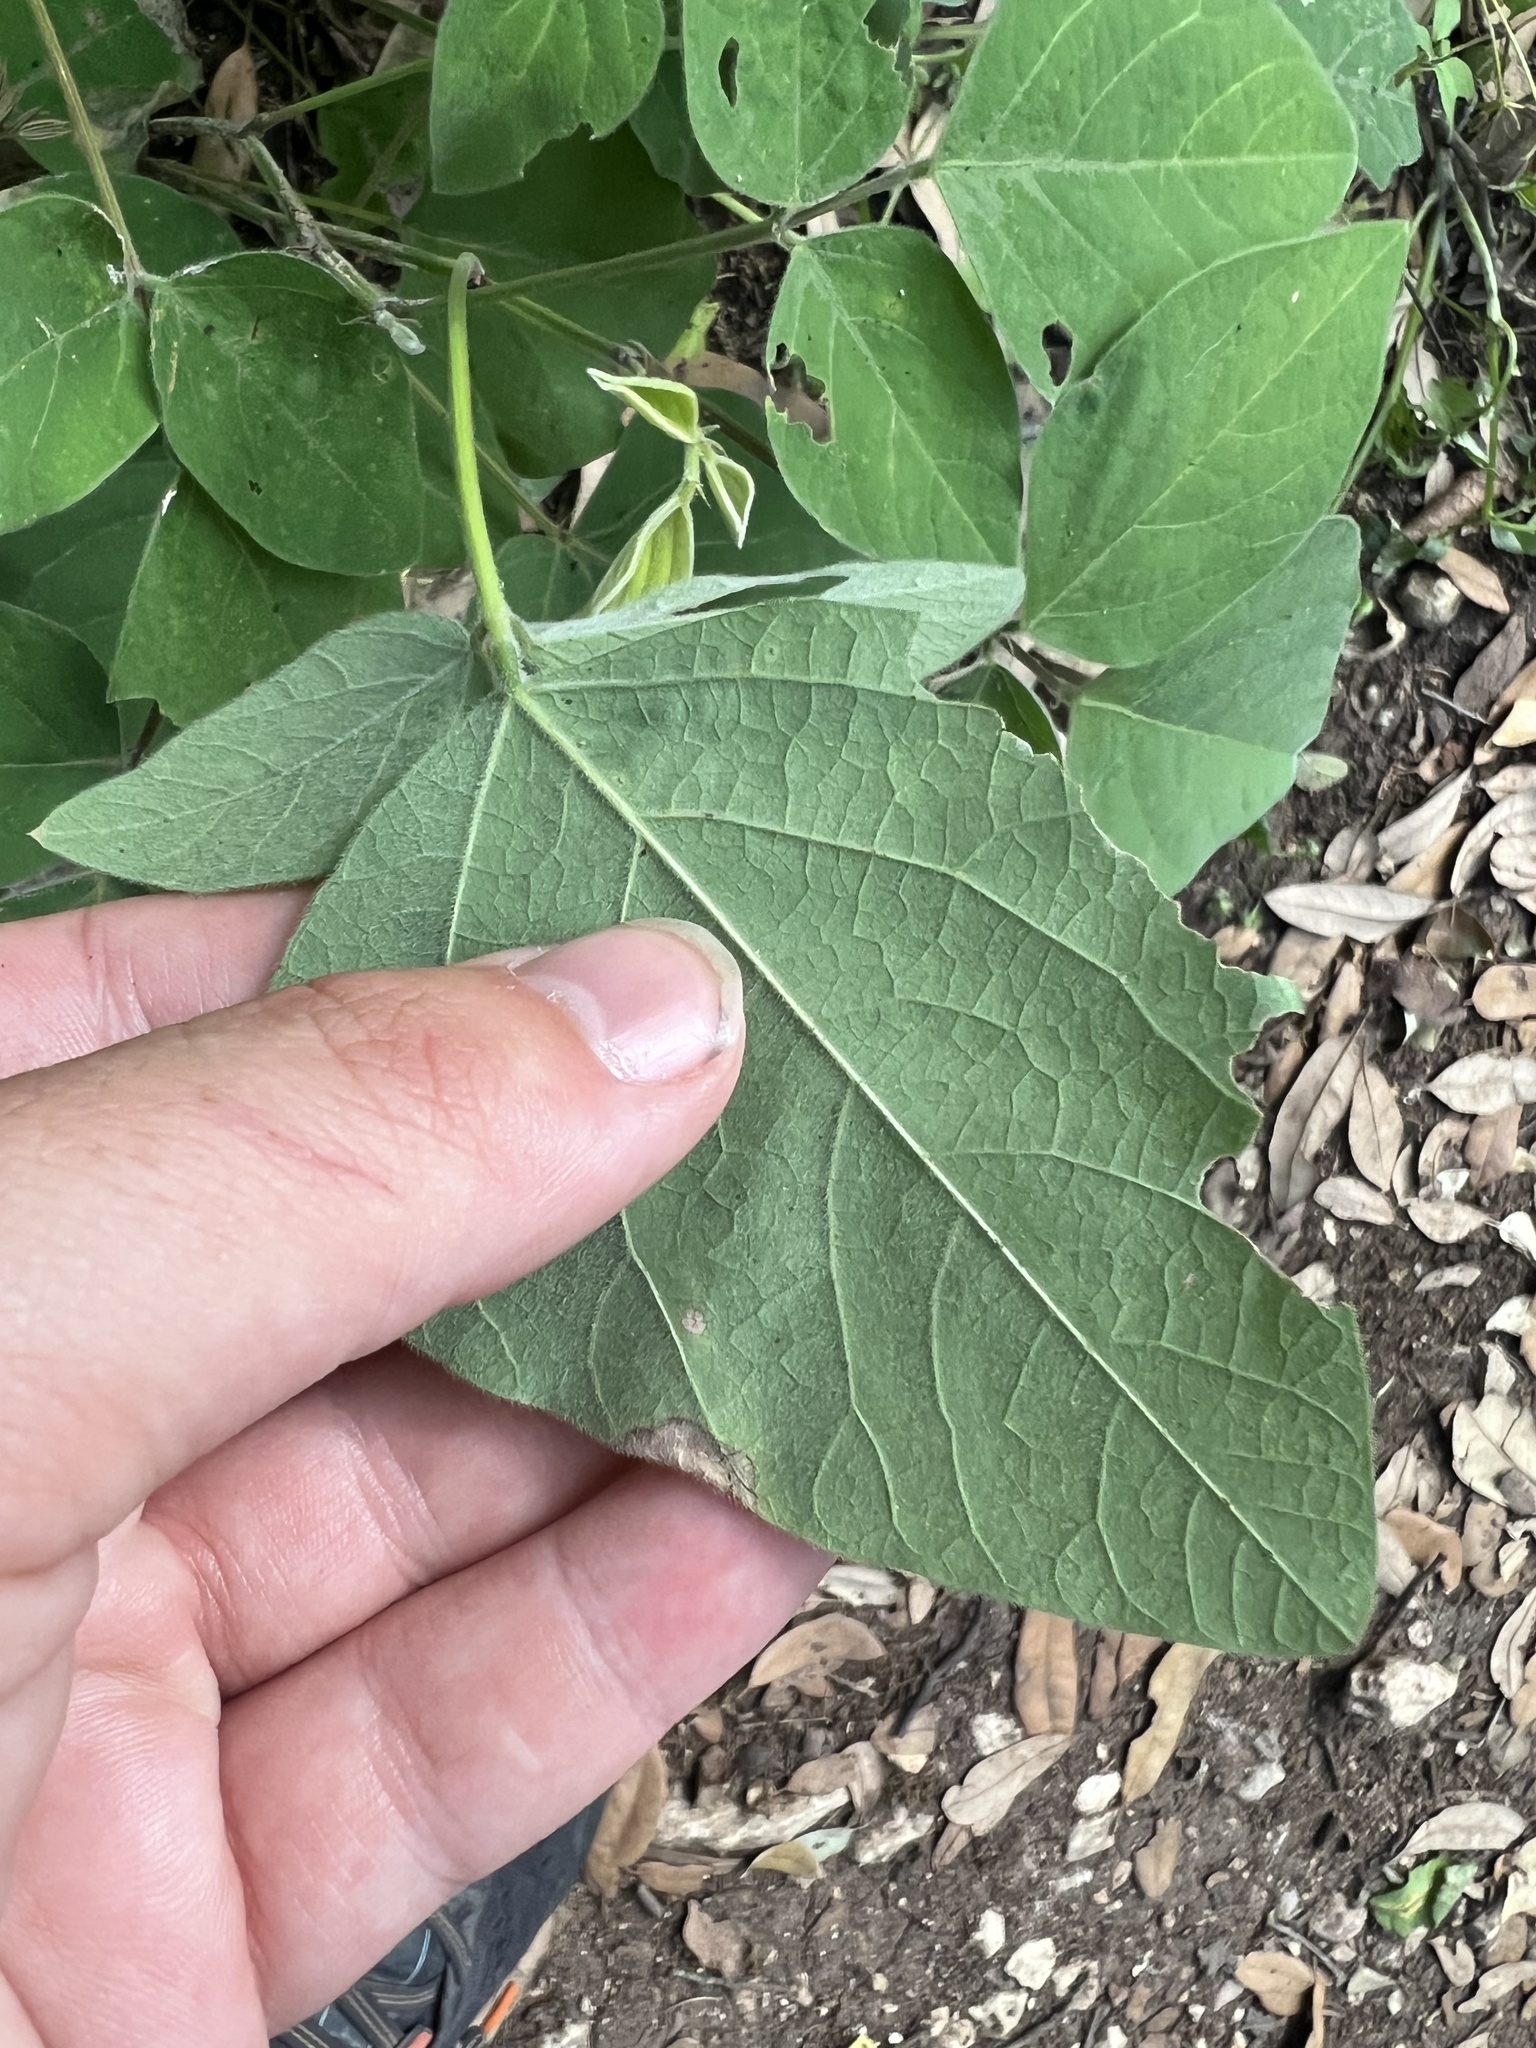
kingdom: Plantae
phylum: Tracheophyta
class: Magnoliopsida
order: Fabales
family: Fabaceae
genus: Desmodium
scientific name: Desmodium lindheimeri
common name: Lindheimer's tick-trefoil
